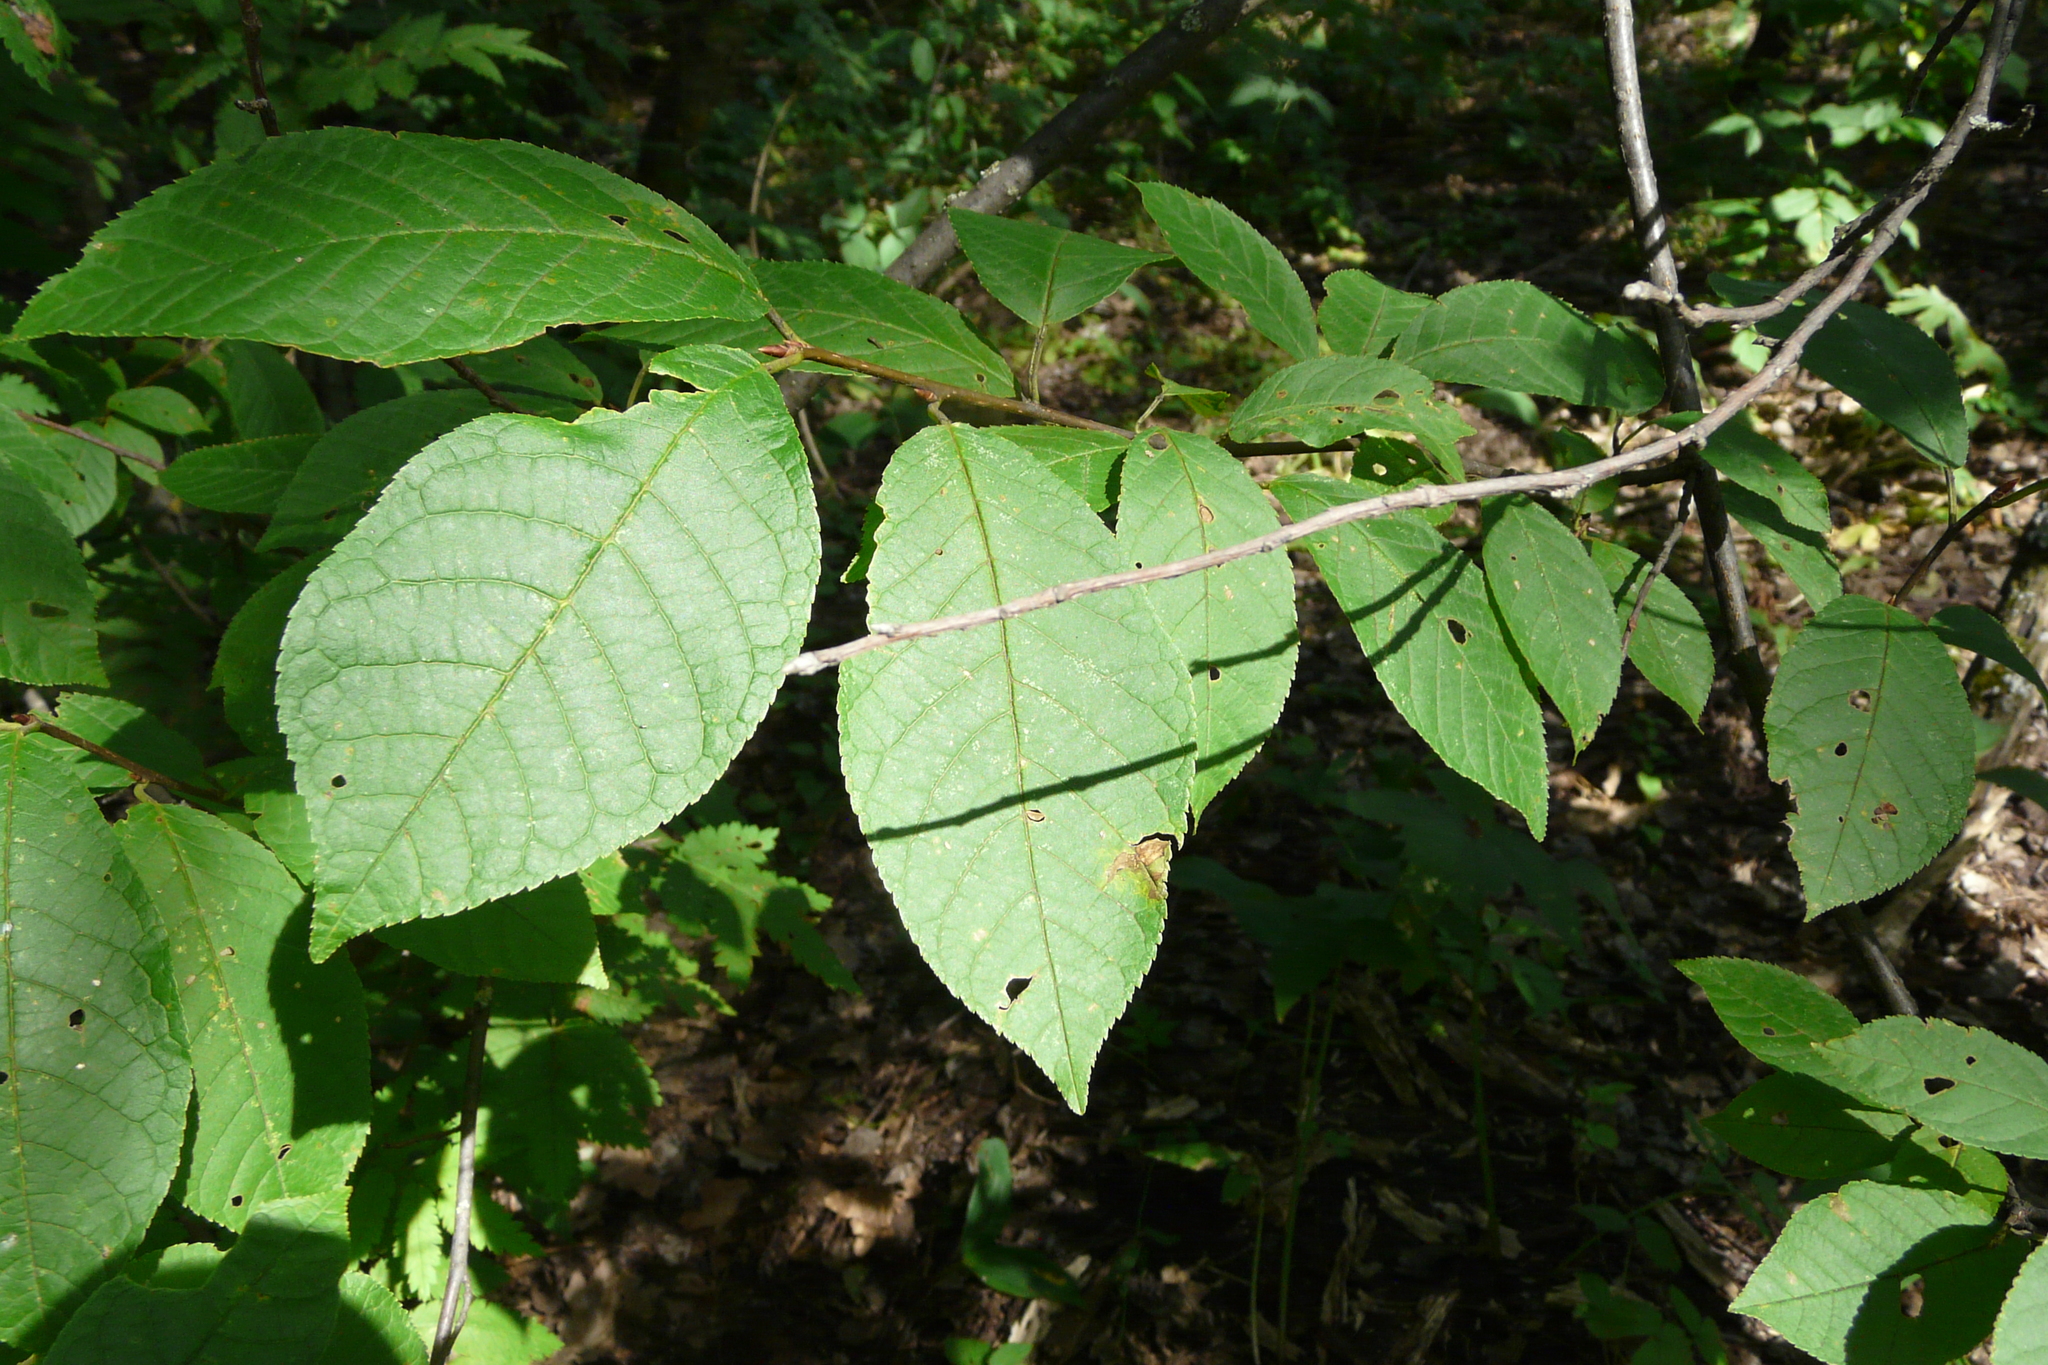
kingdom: Plantae
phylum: Tracheophyta
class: Magnoliopsida
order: Rosales
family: Rosaceae
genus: Prunus
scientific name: Prunus padus
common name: Bird cherry
